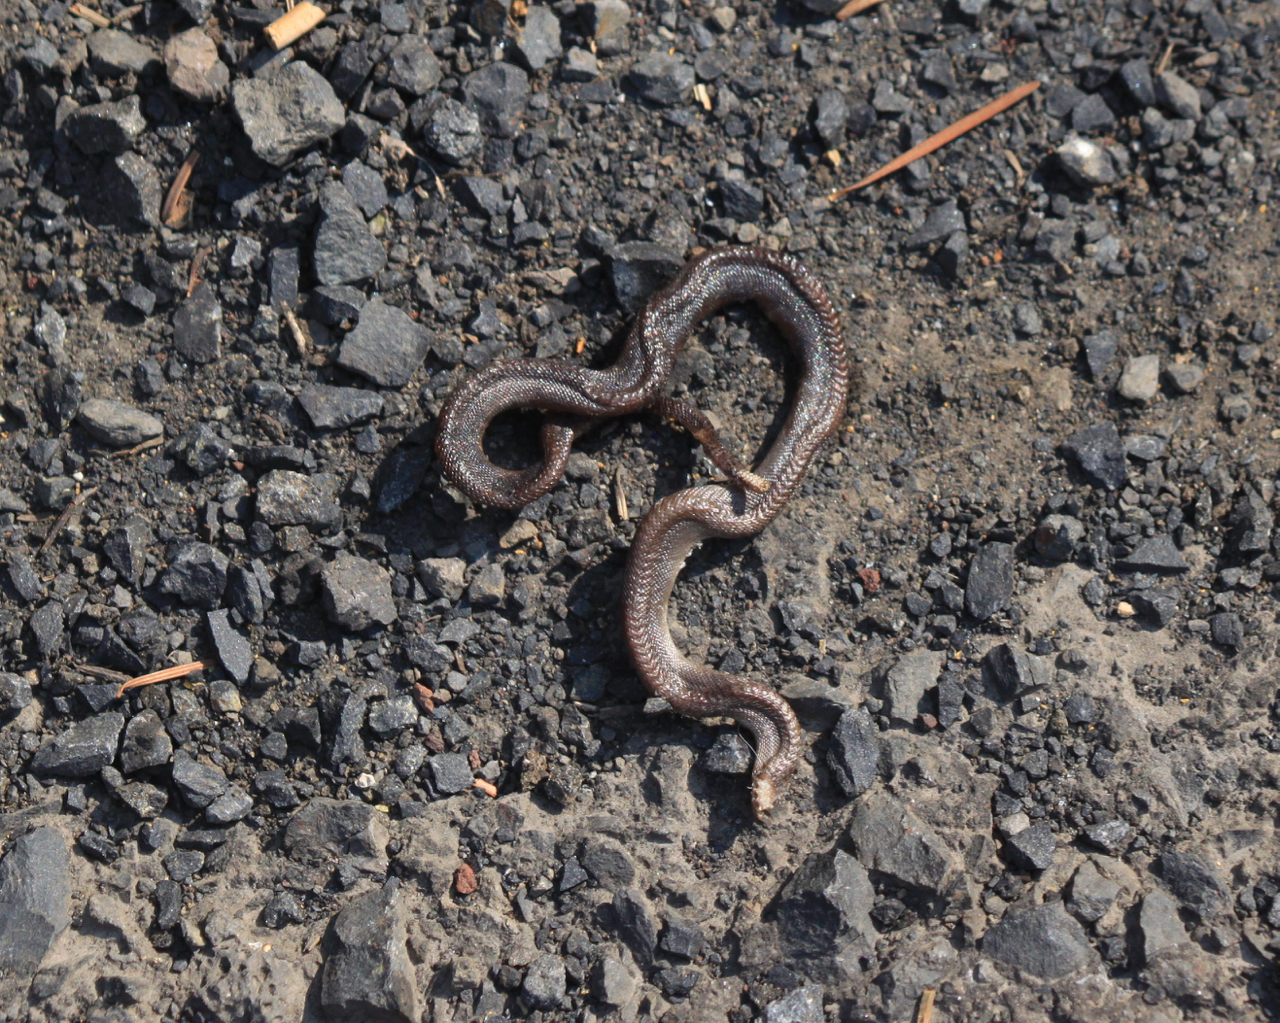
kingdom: Animalia
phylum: Chordata
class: Squamata
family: Boidae
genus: Charina
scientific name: Charina bottae
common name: Northern rubber boa
